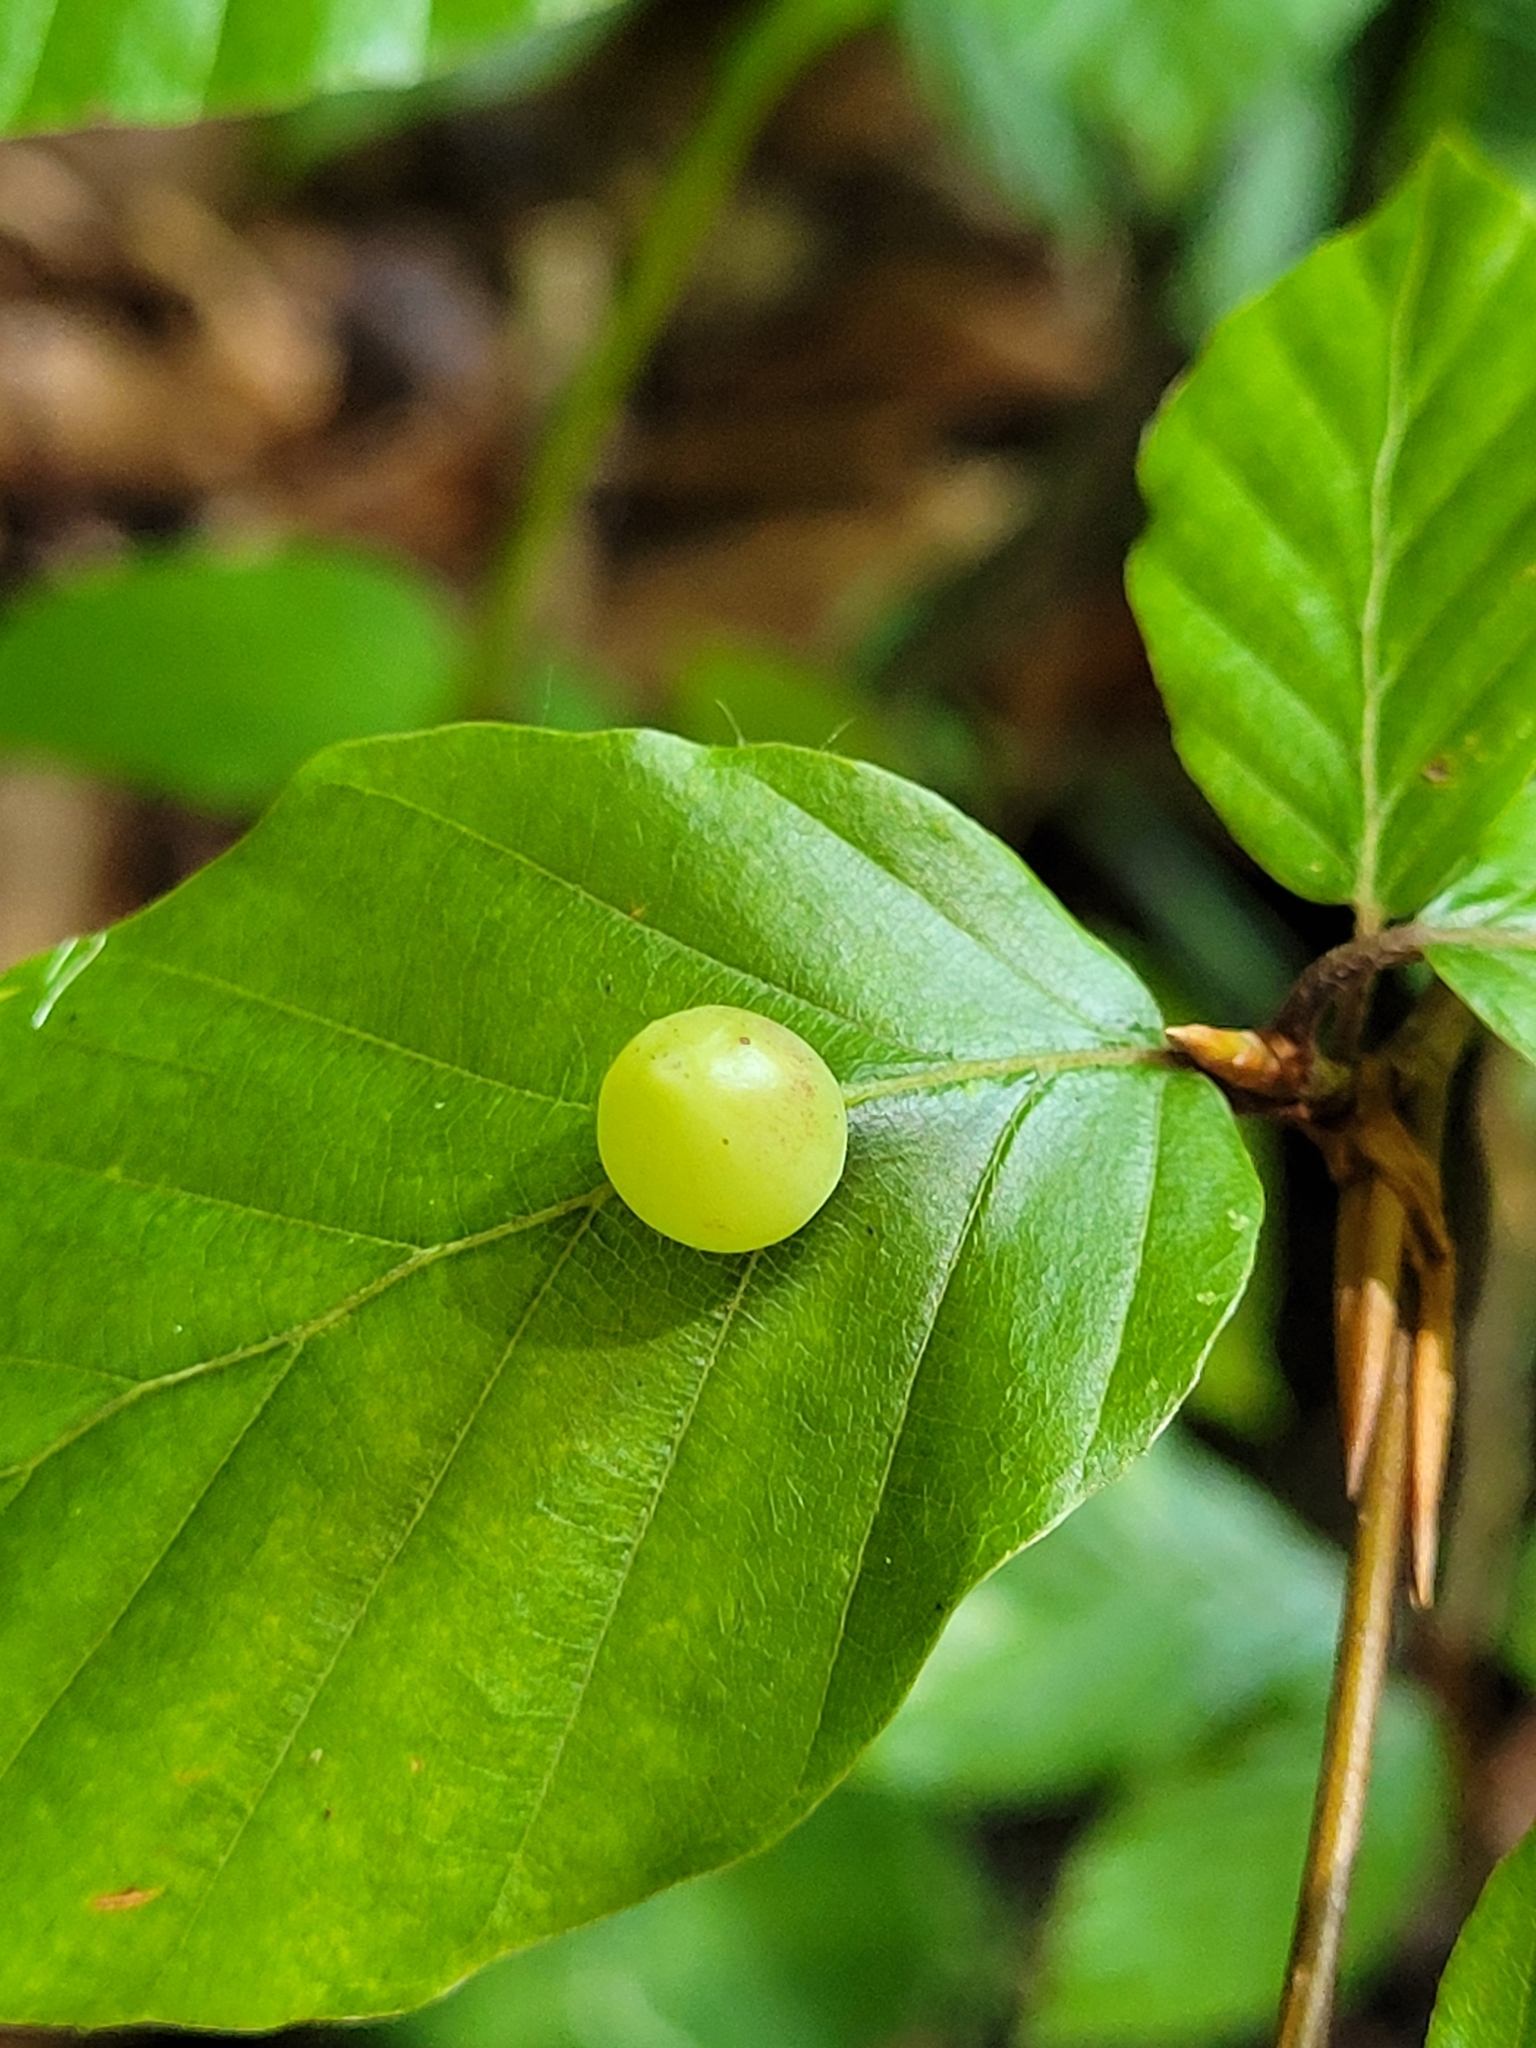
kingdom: Animalia
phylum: Arthropoda
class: Insecta
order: Diptera
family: Cecidomyiidae
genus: Mikiola
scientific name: Mikiola fagi
